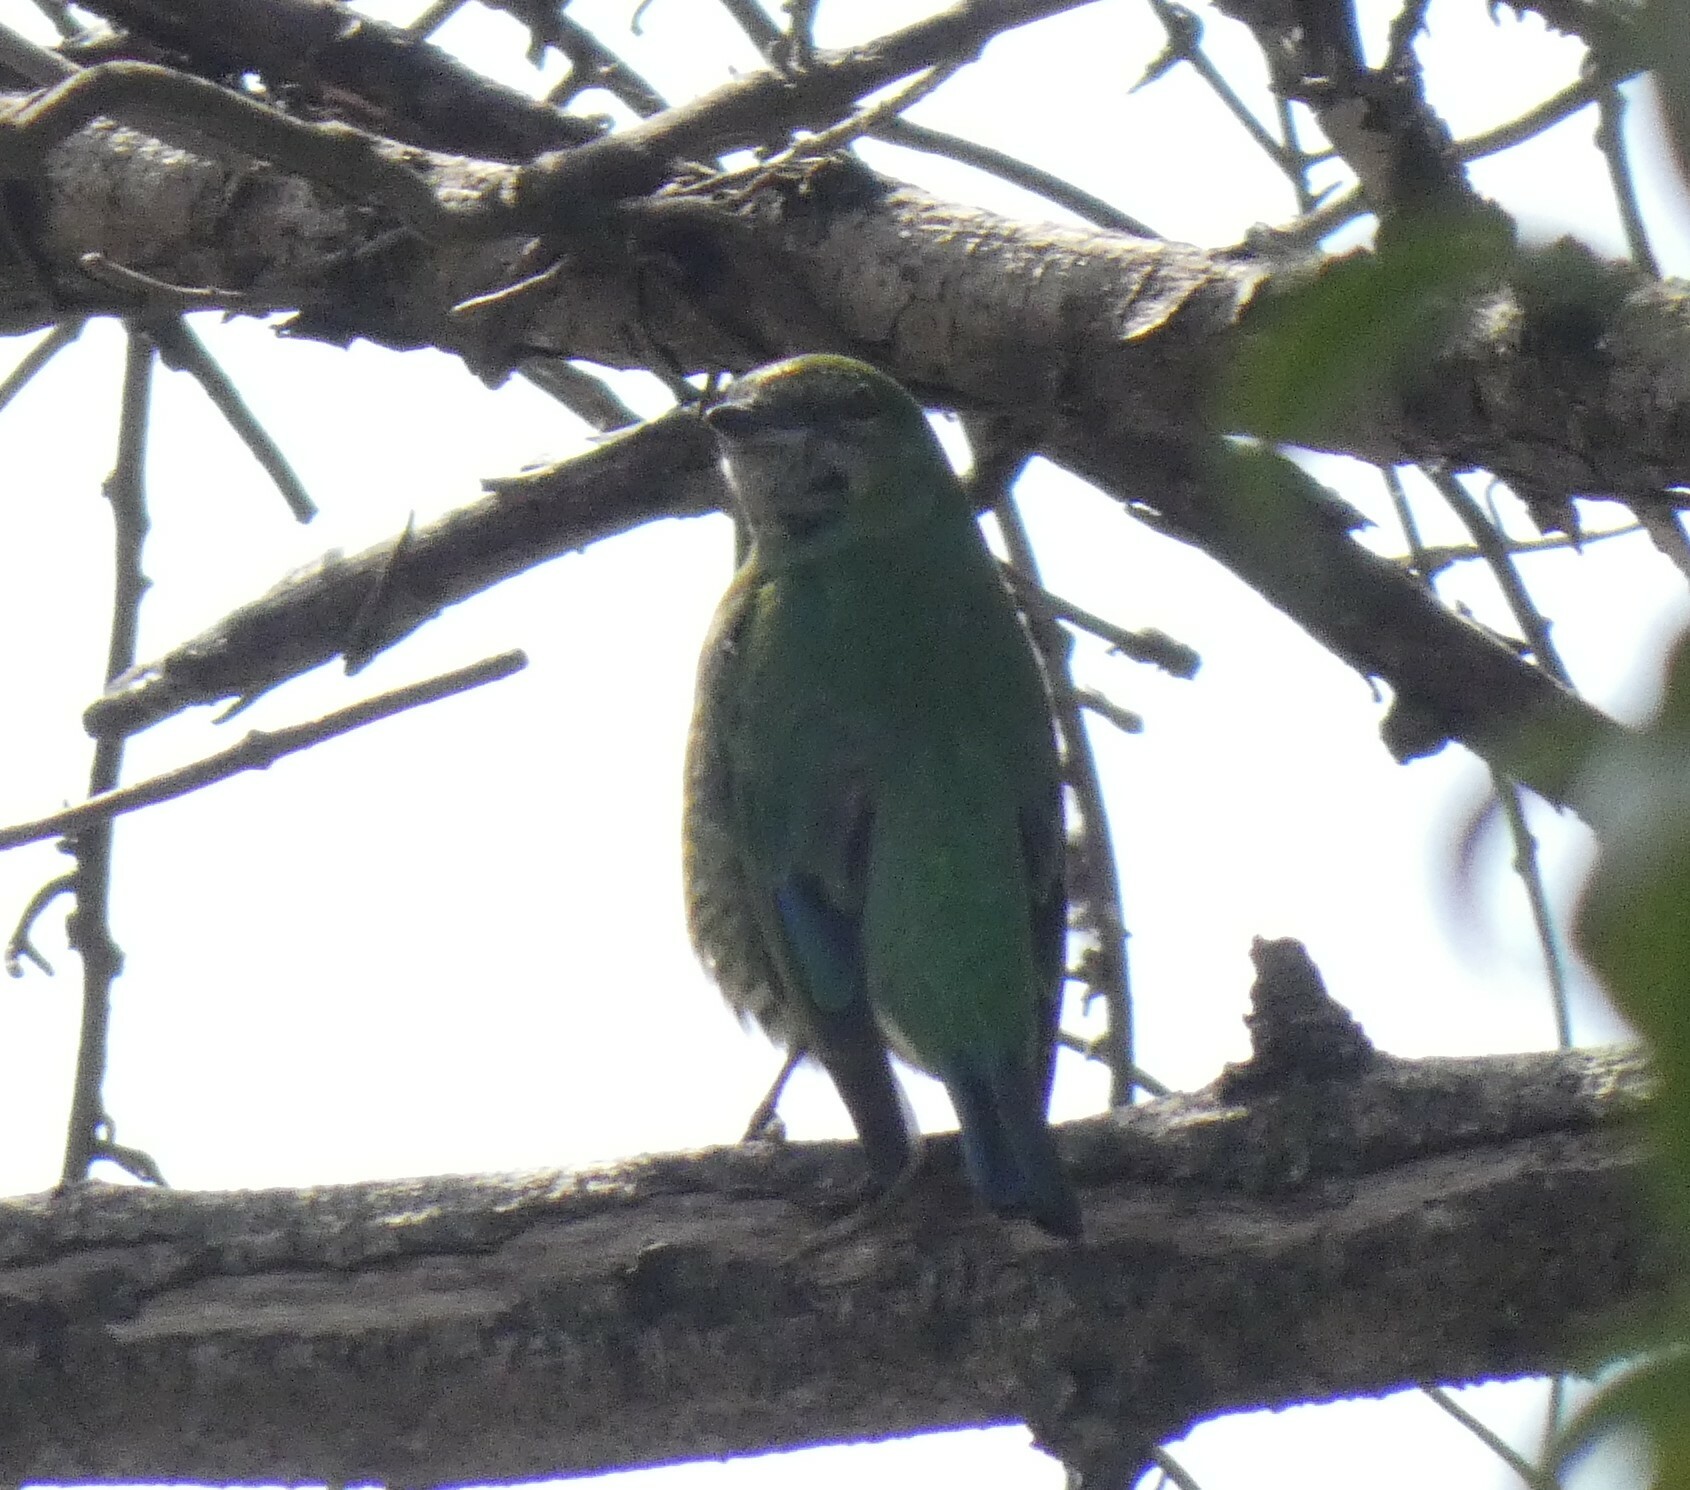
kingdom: Animalia
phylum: Chordata
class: Aves
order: Passeriformes
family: Thraupidae
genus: Tersina
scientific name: Tersina viridis
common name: Swallow tanager
